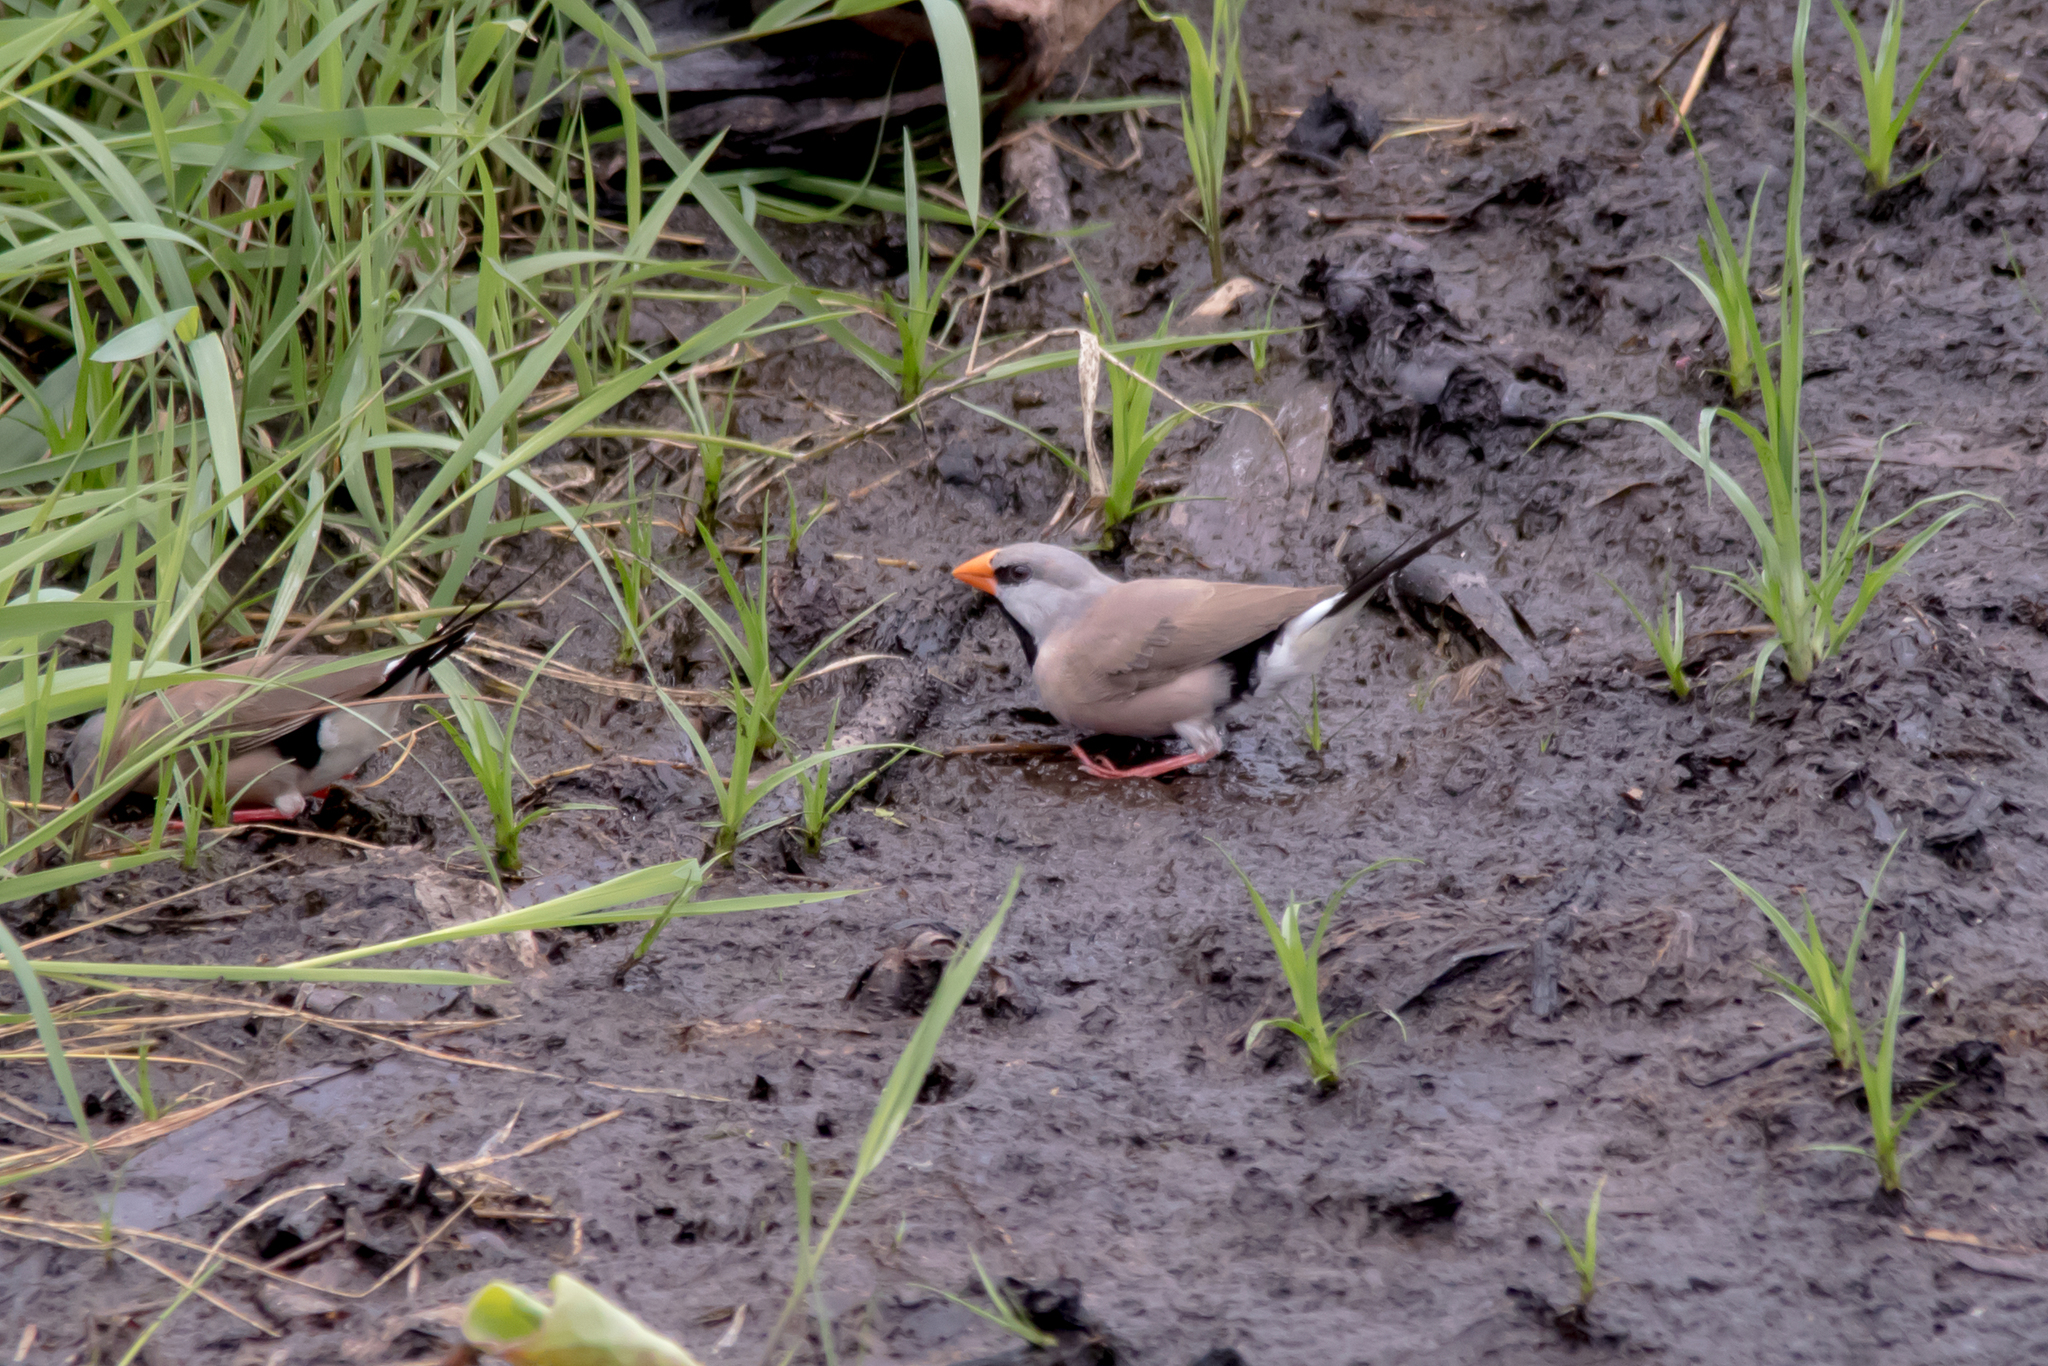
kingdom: Animalia
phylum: Chordata
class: Aves
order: Passeriformes
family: Estrildidae
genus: Poephila
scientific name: Poephila acuticauda
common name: Long-tailed finch
